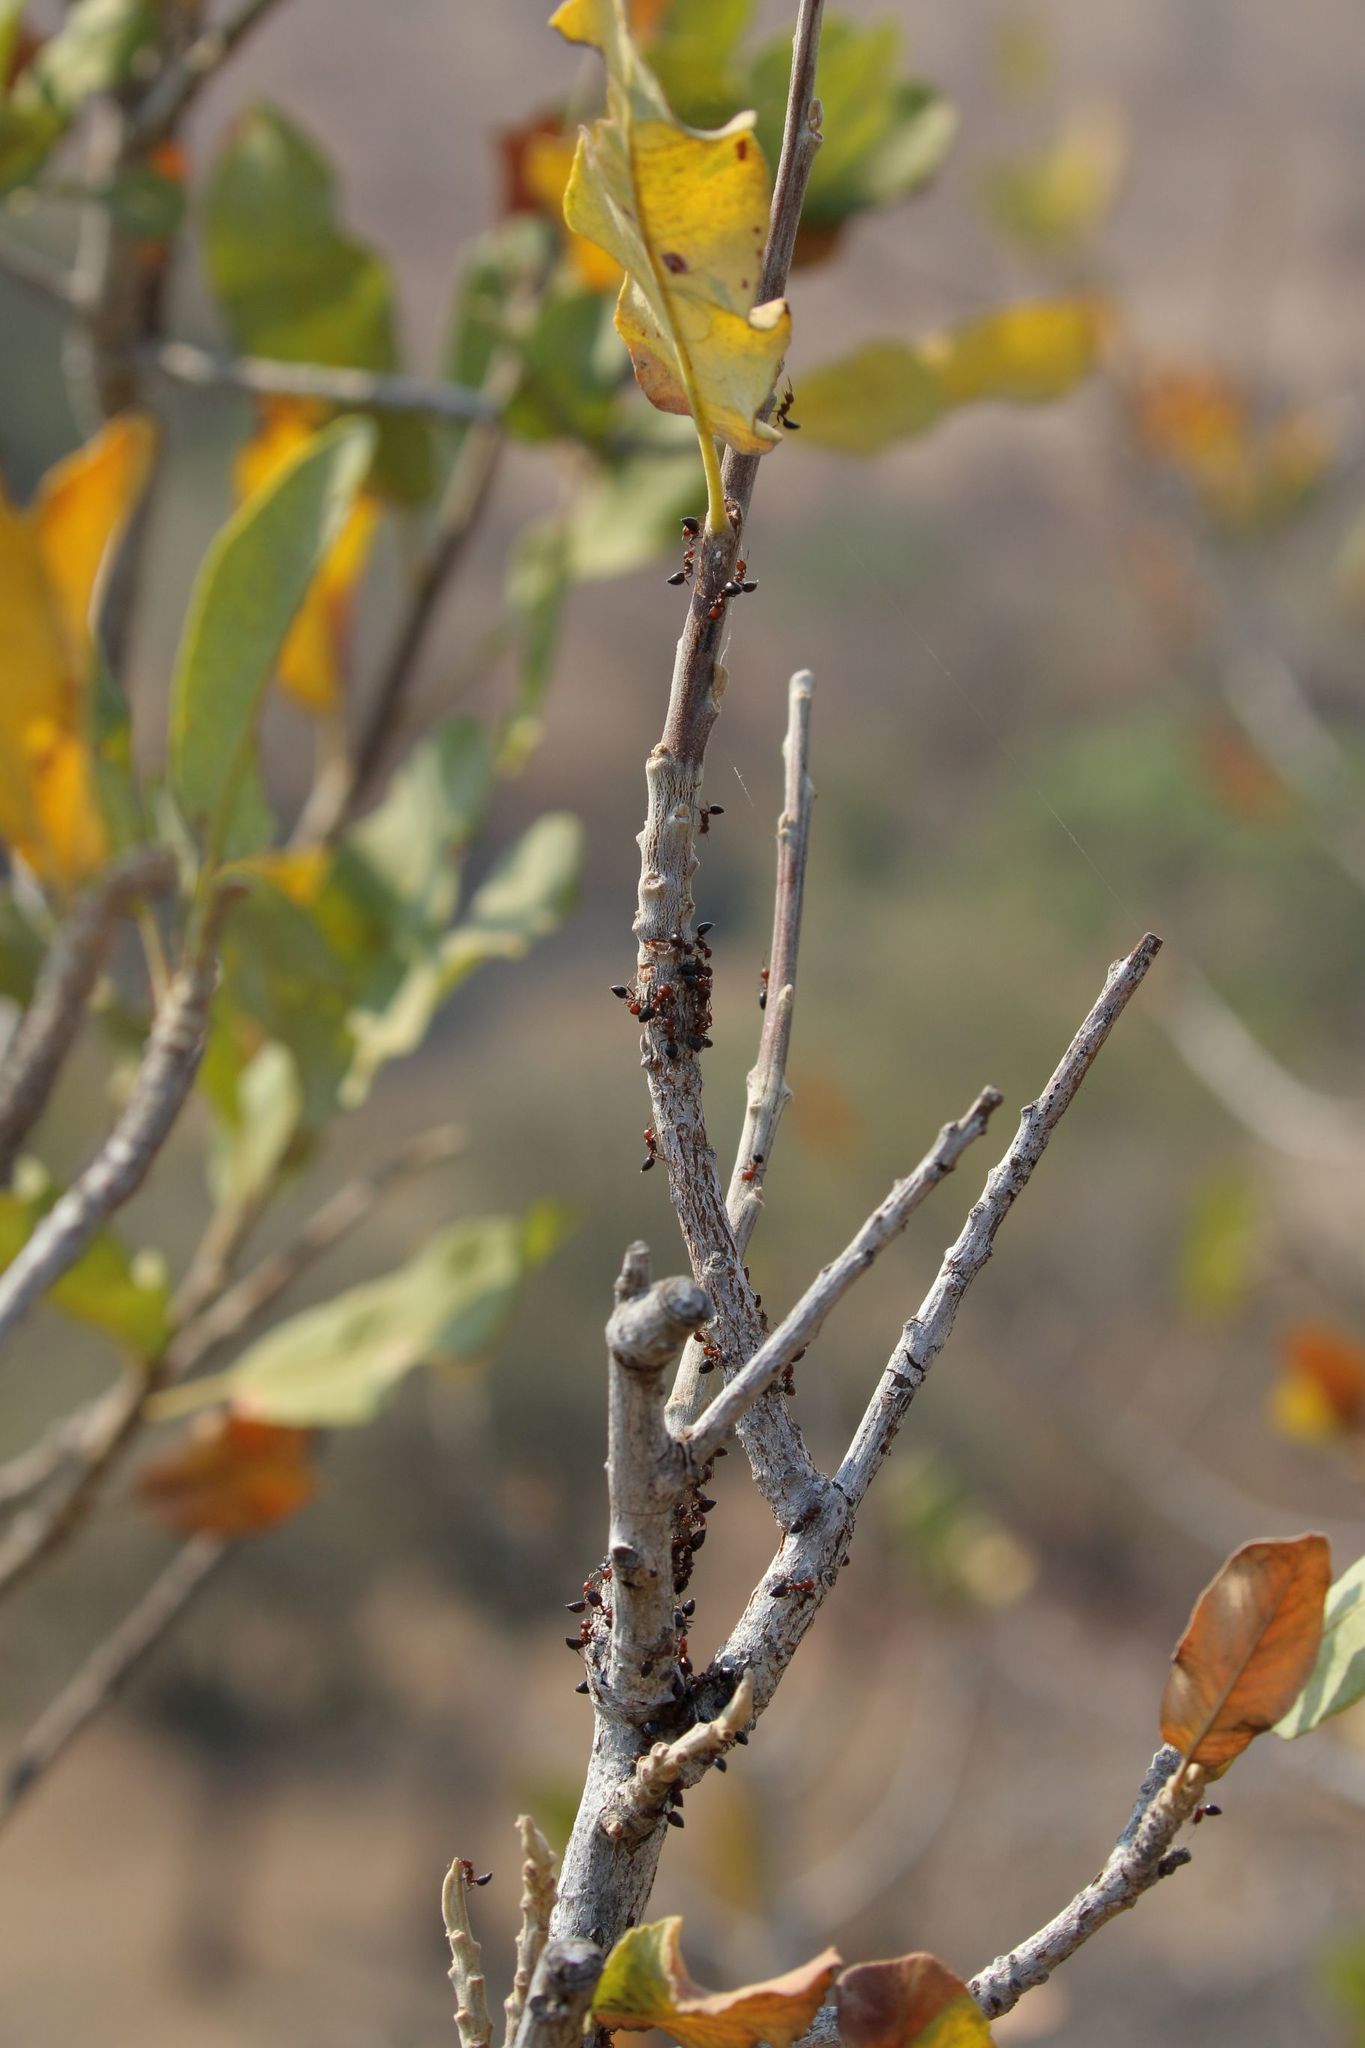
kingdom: Plantae
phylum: Tracheophyta
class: Magnoliopsida
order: Sapindales
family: Sapindaceae
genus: Pappea
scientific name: Pappea capensis
